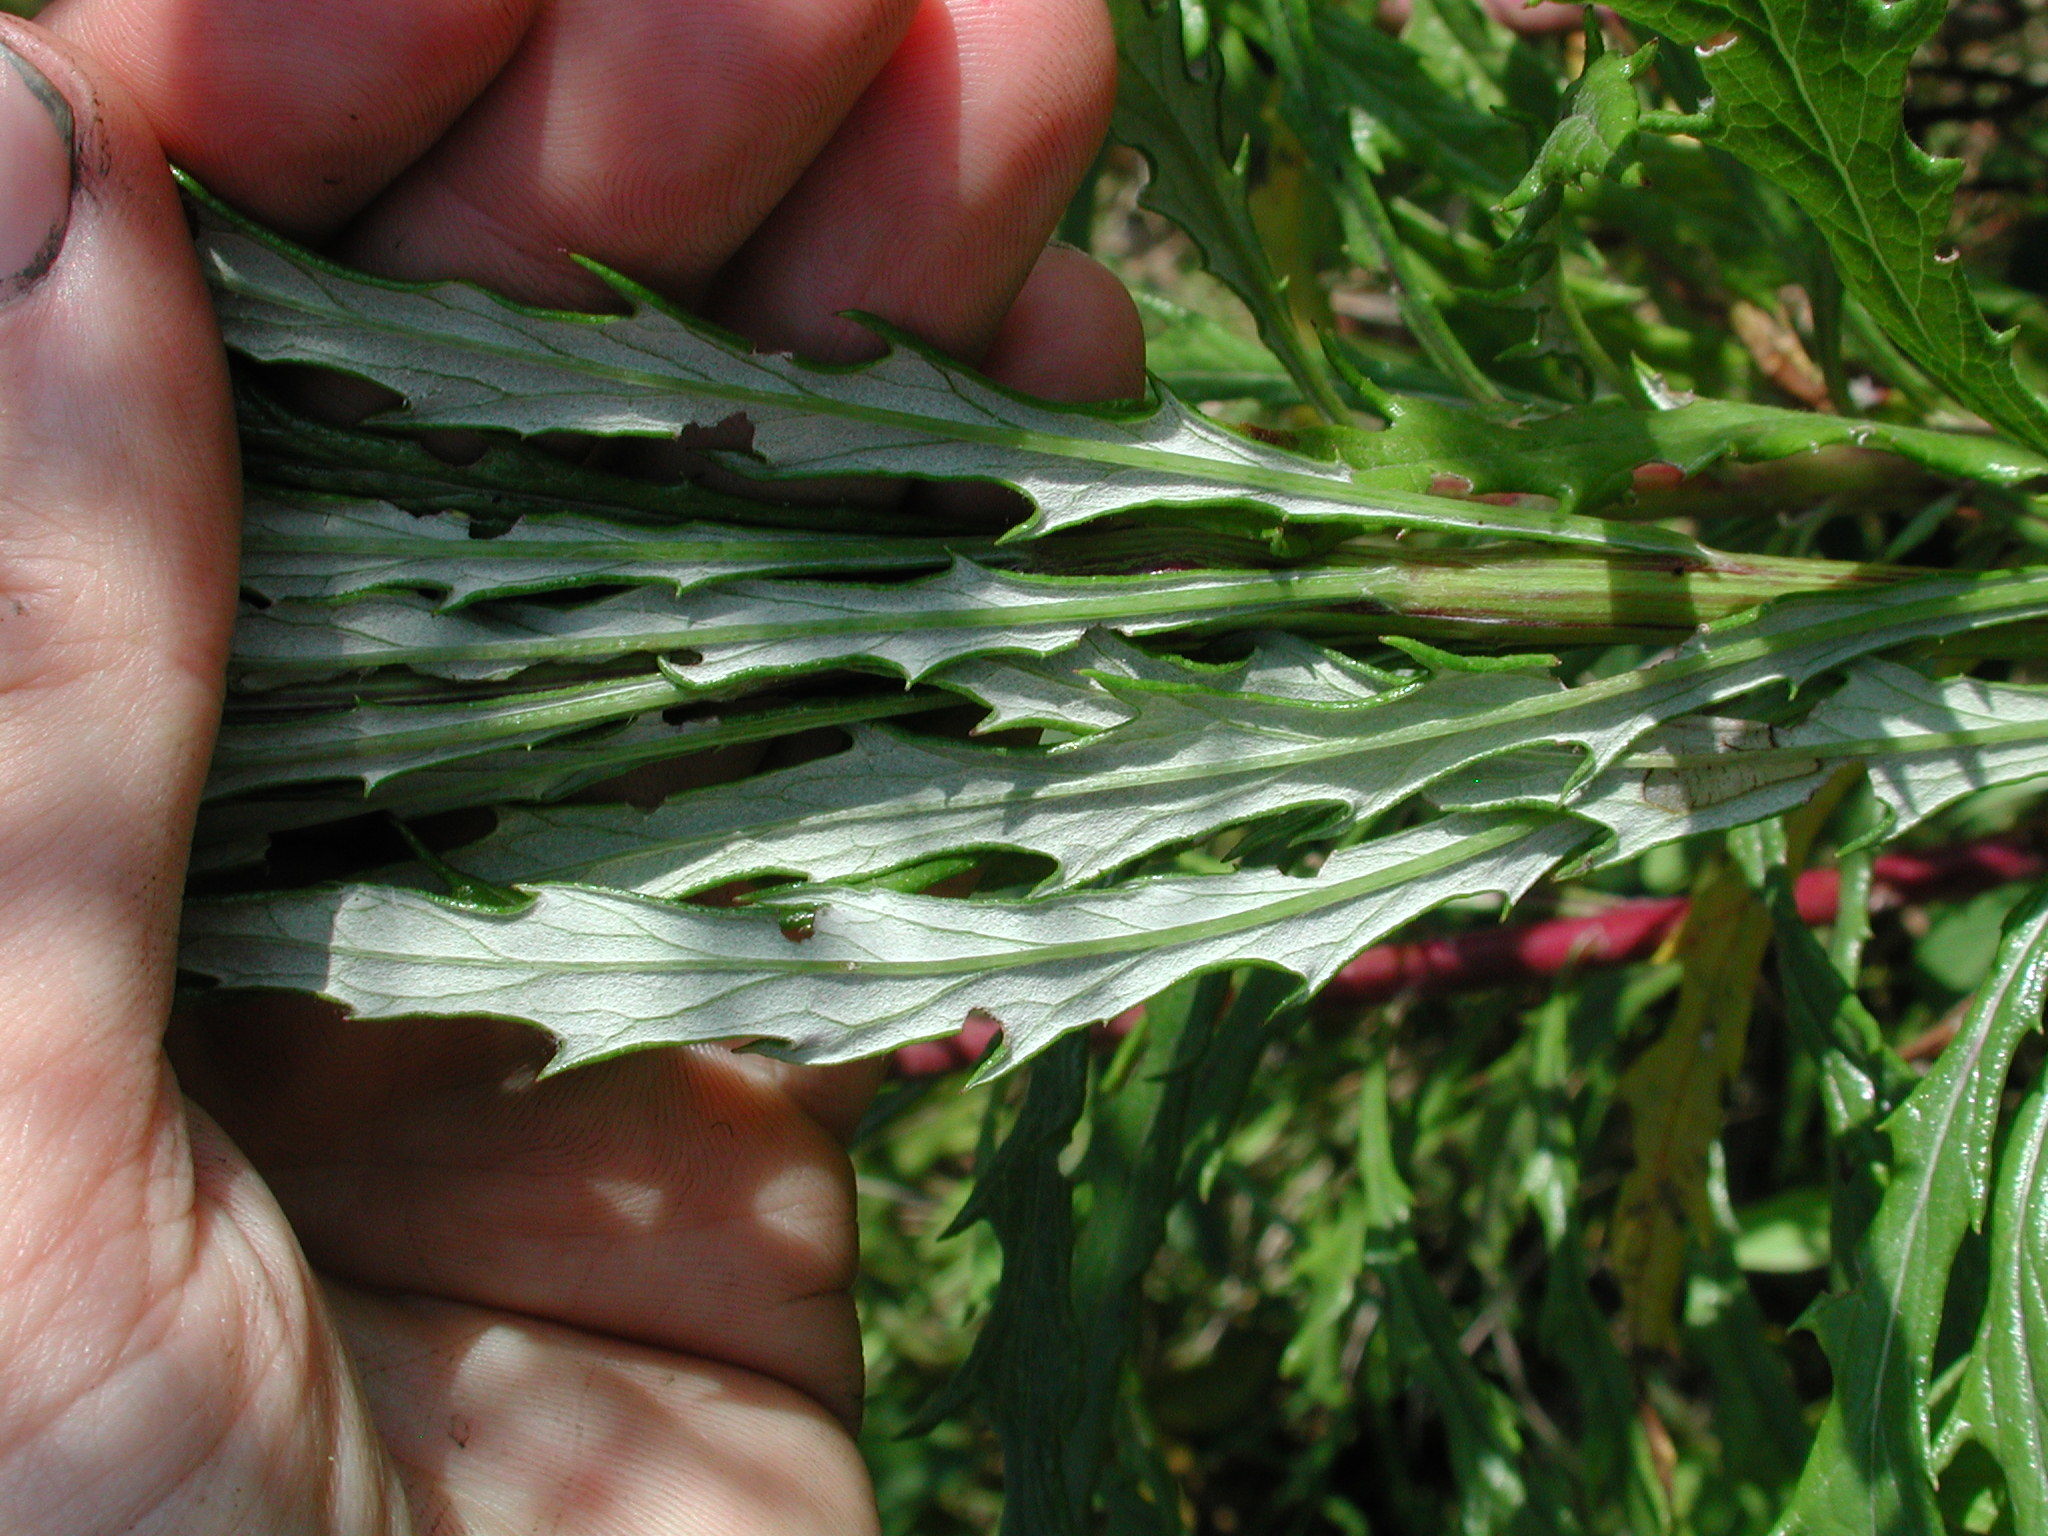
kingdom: Plantae
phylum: Tracheophyta
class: Magnoliopsida
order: Asterales
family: Asteraceae
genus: Senecio
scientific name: Senecio polyanthemoides
